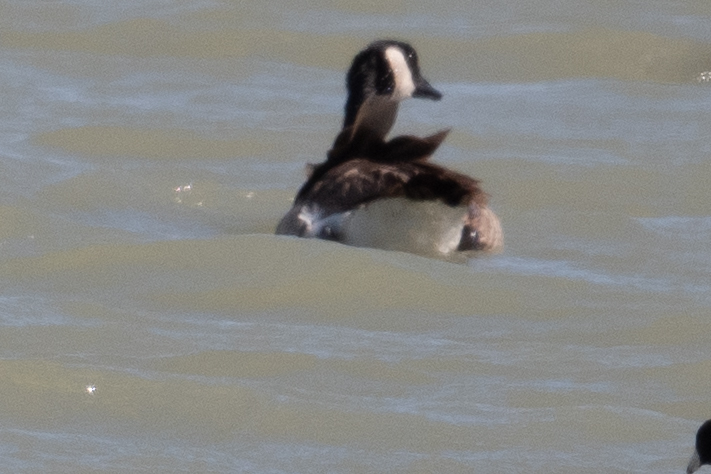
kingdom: Animalia
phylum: Chordata
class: Aves
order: Anseriformes
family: Anatidae
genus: Branta
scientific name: Branta canadensis
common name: Canada goose
